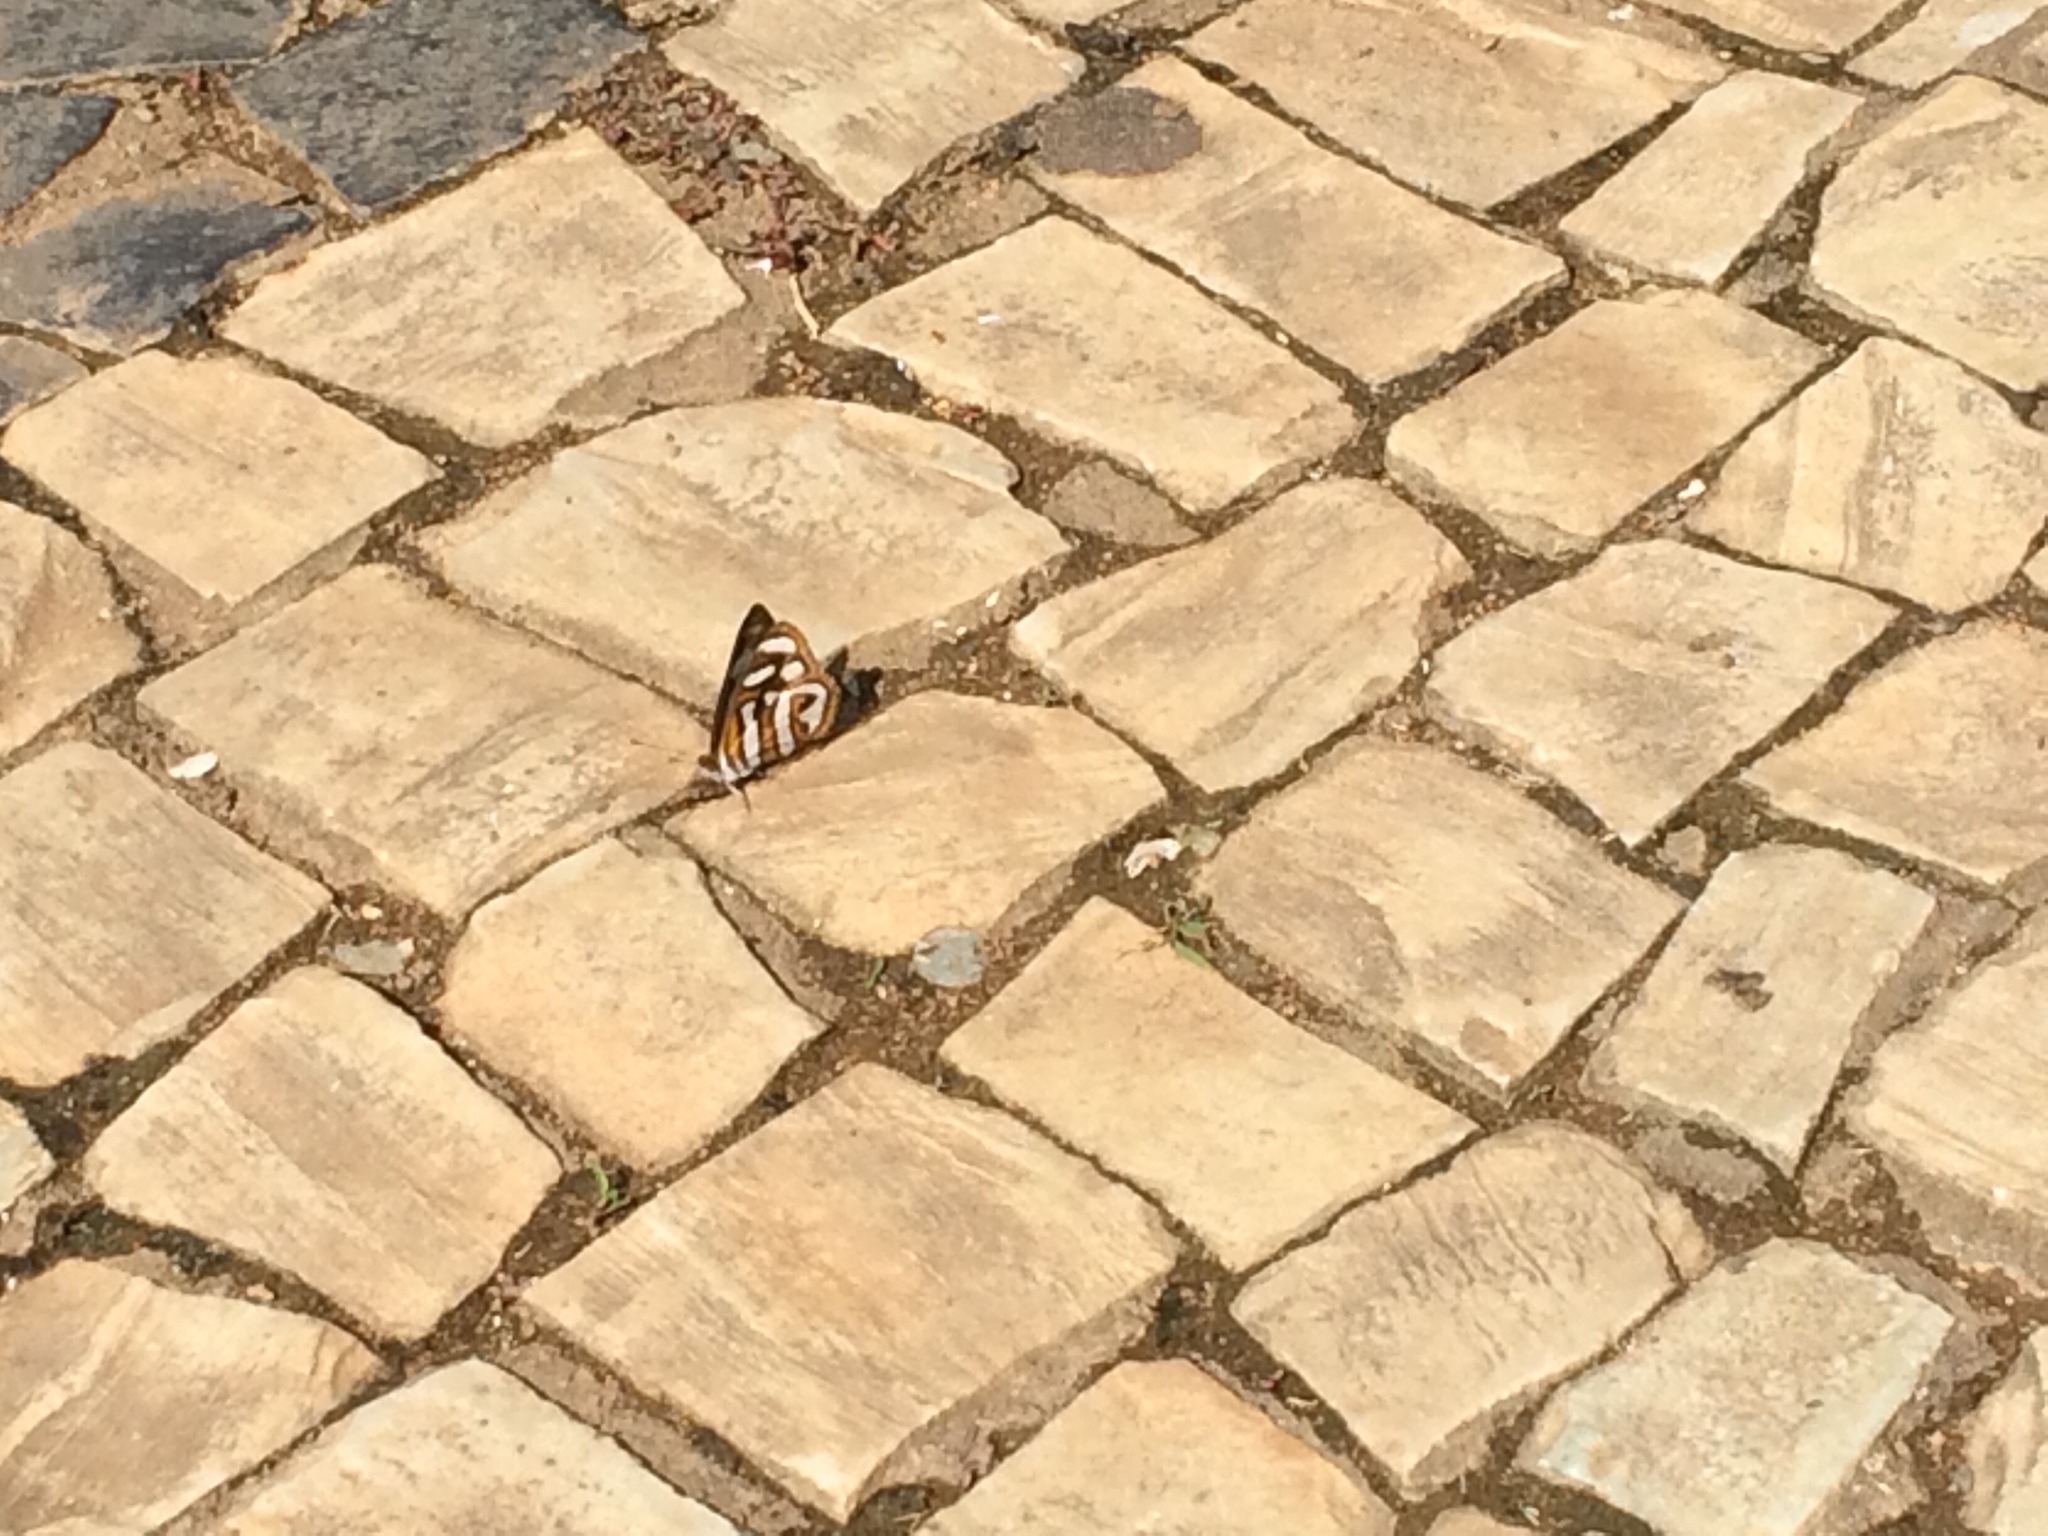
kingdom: Animalia
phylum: Arthropoda
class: Insecta
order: Lepidoptera
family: Nymphalidae
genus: Dynamine
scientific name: Dynamine artemisia
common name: Small-eyed sailor
